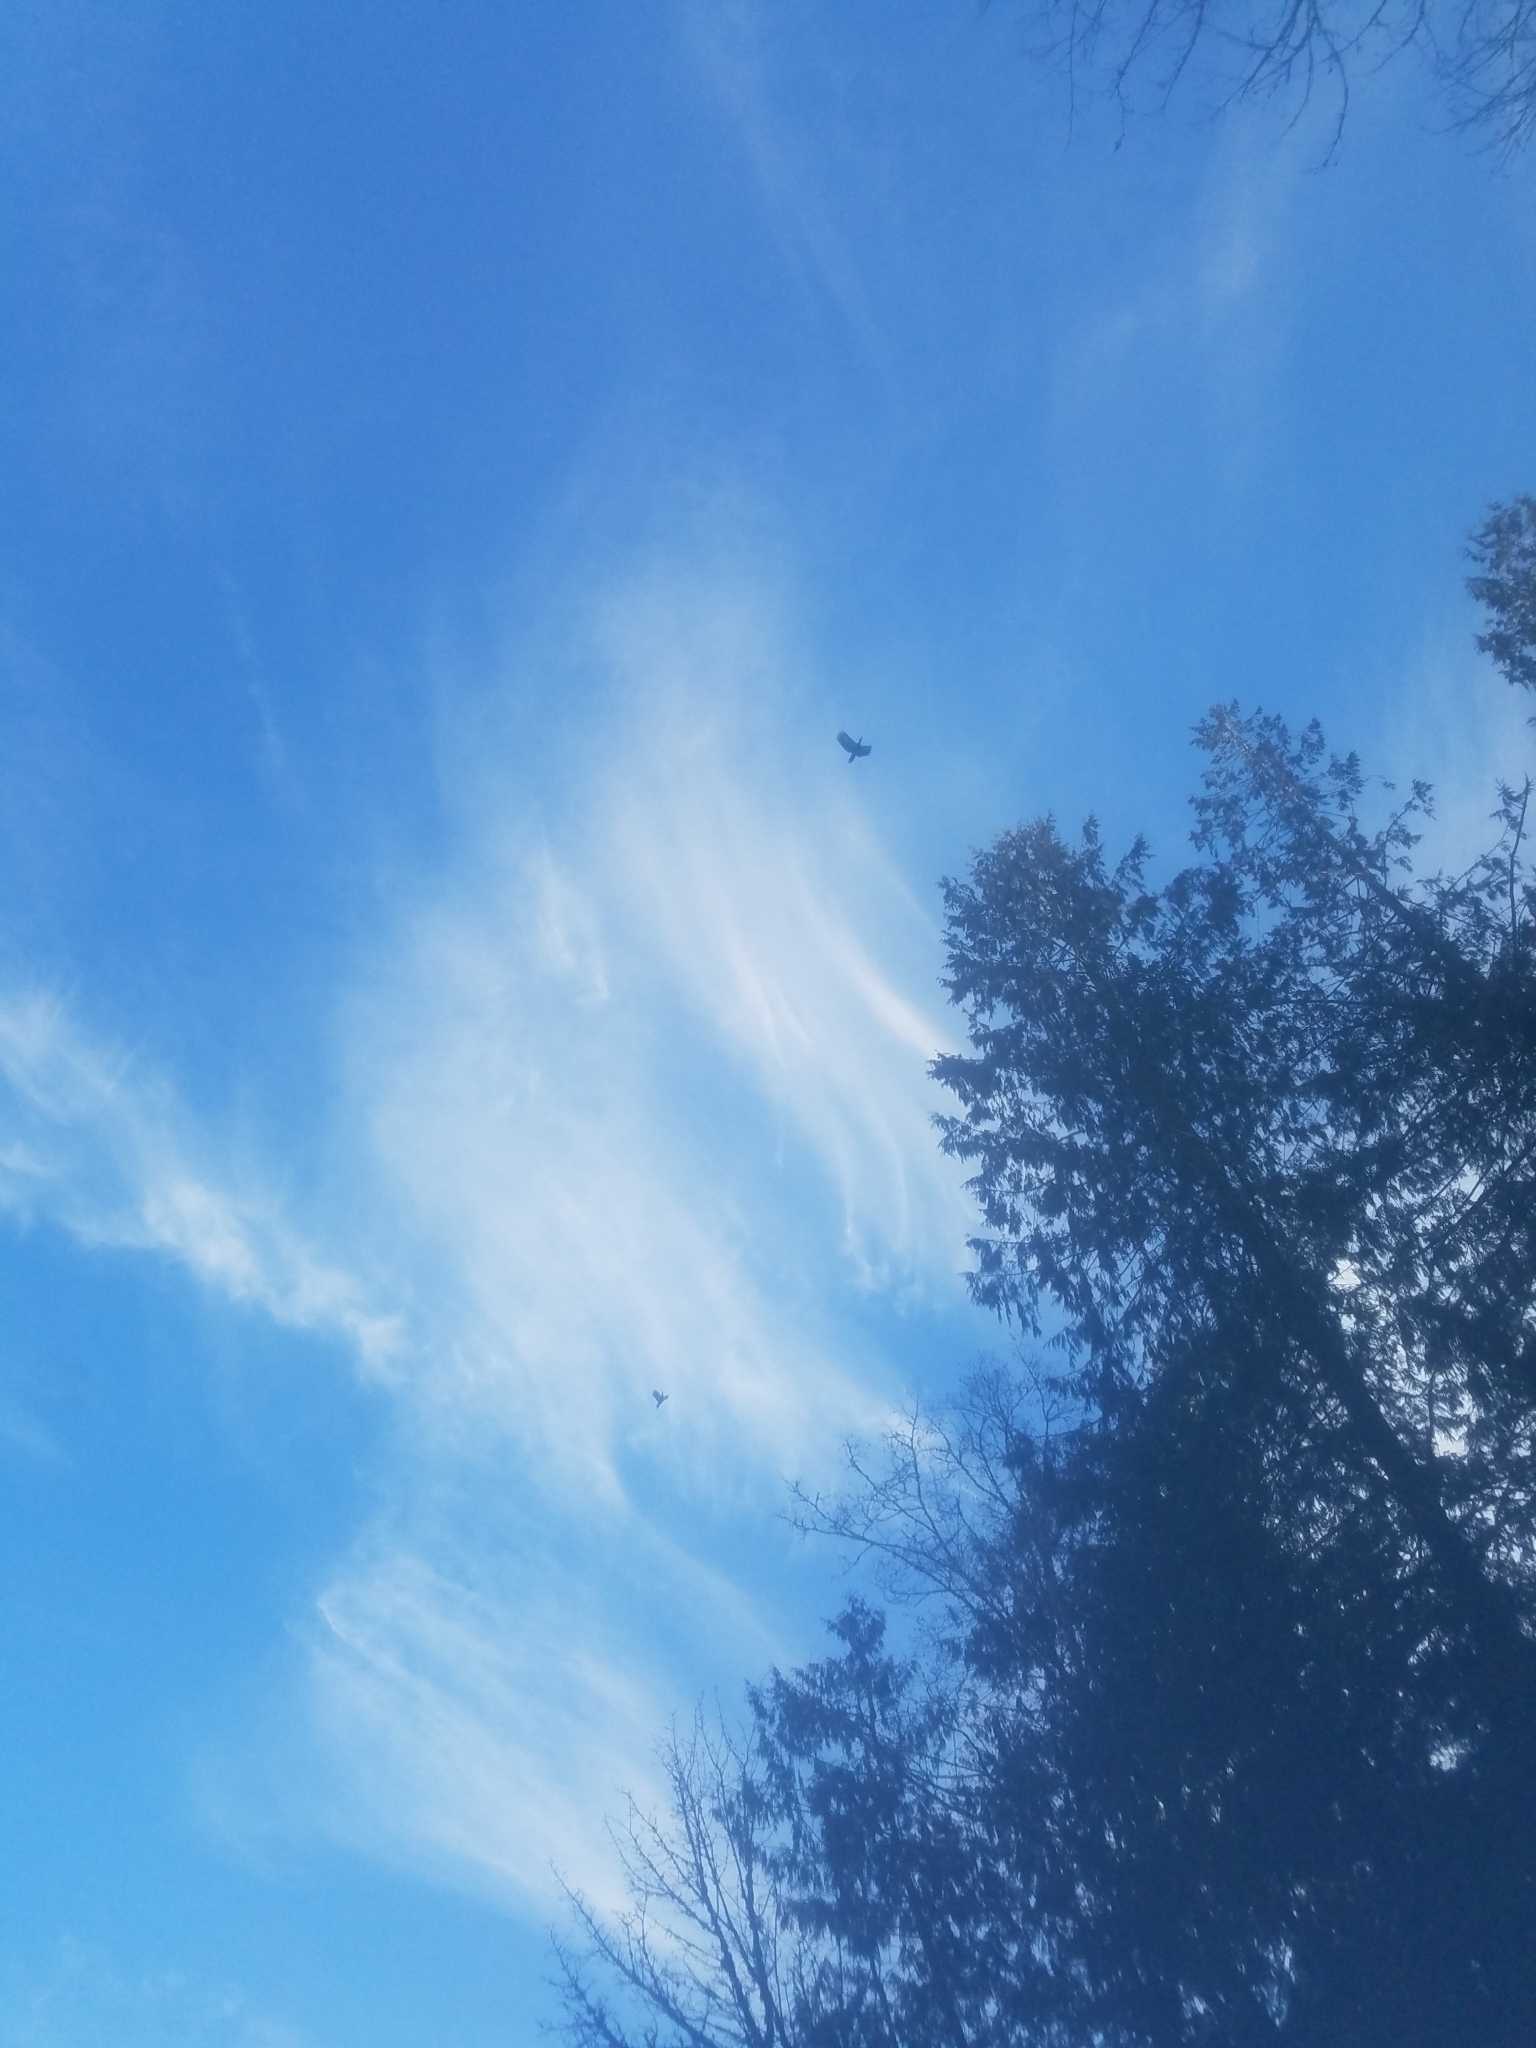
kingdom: Animalia
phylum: Chordata
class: Aves
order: Piciformes
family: Picidae
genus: Dryocopus
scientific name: Dryocopus pileatus
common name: Pileated woodpecker
